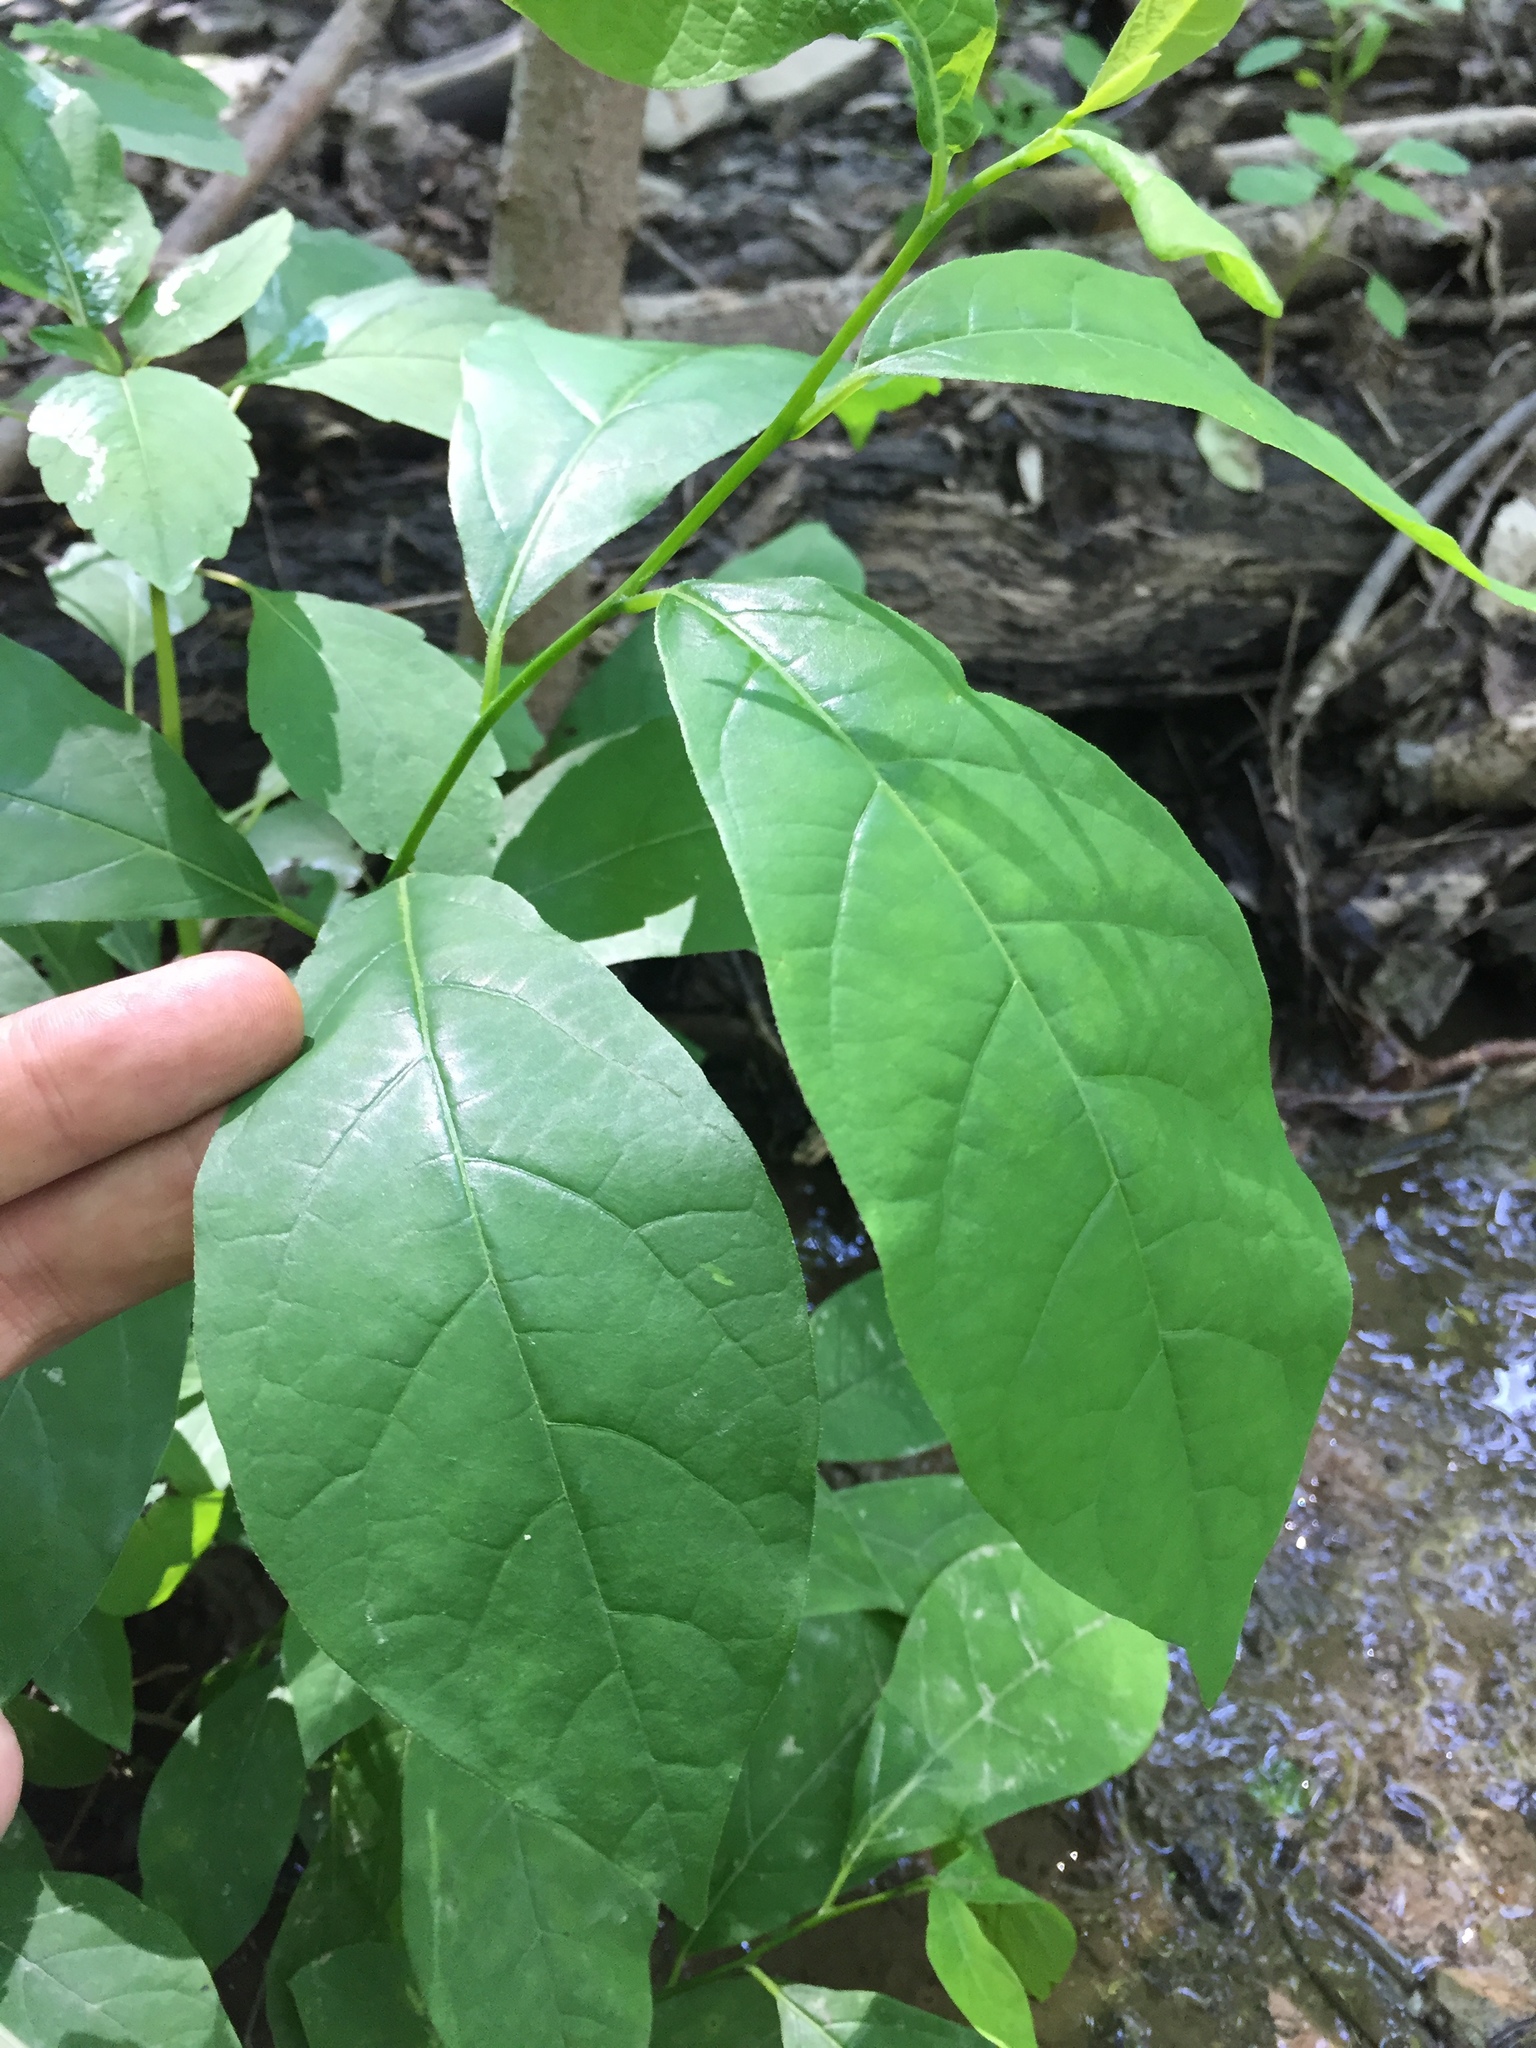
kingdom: Plantae
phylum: Tracheophyta
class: Magnoliopsida
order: Laurales
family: Lauraceae
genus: Lindera
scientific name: Lindera benzoin
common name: Spicebush
